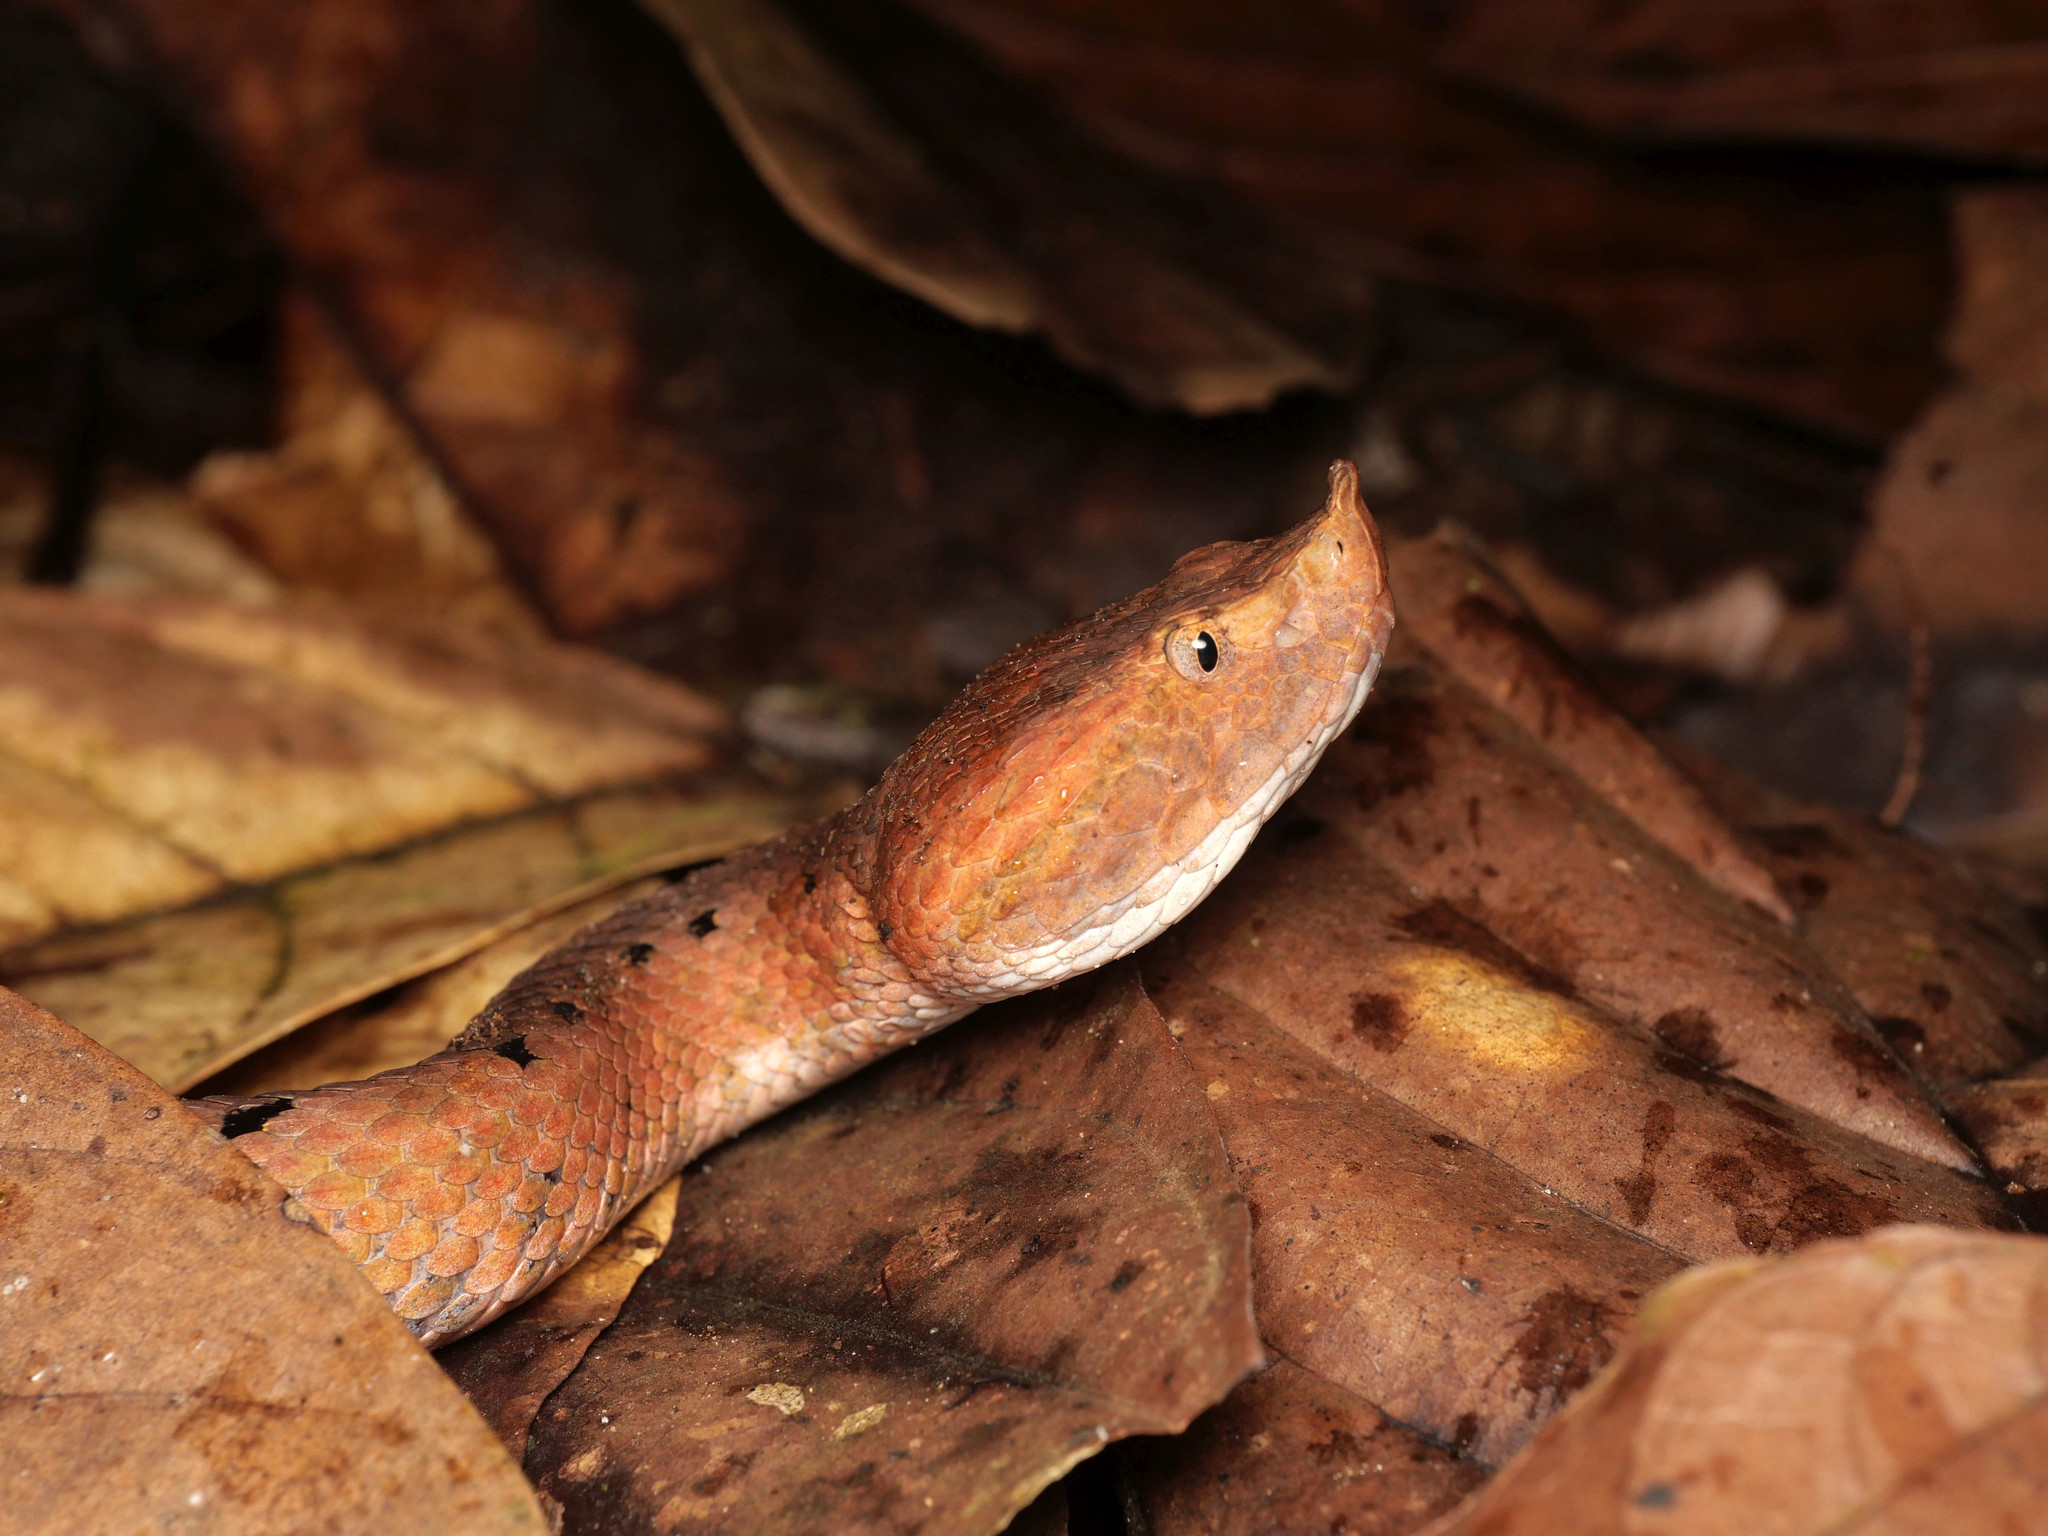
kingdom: Animalia
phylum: Chordata
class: Squamata
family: Viperidae
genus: Porthidium
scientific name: Porthidium nasutum
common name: Hognosed pit viper
